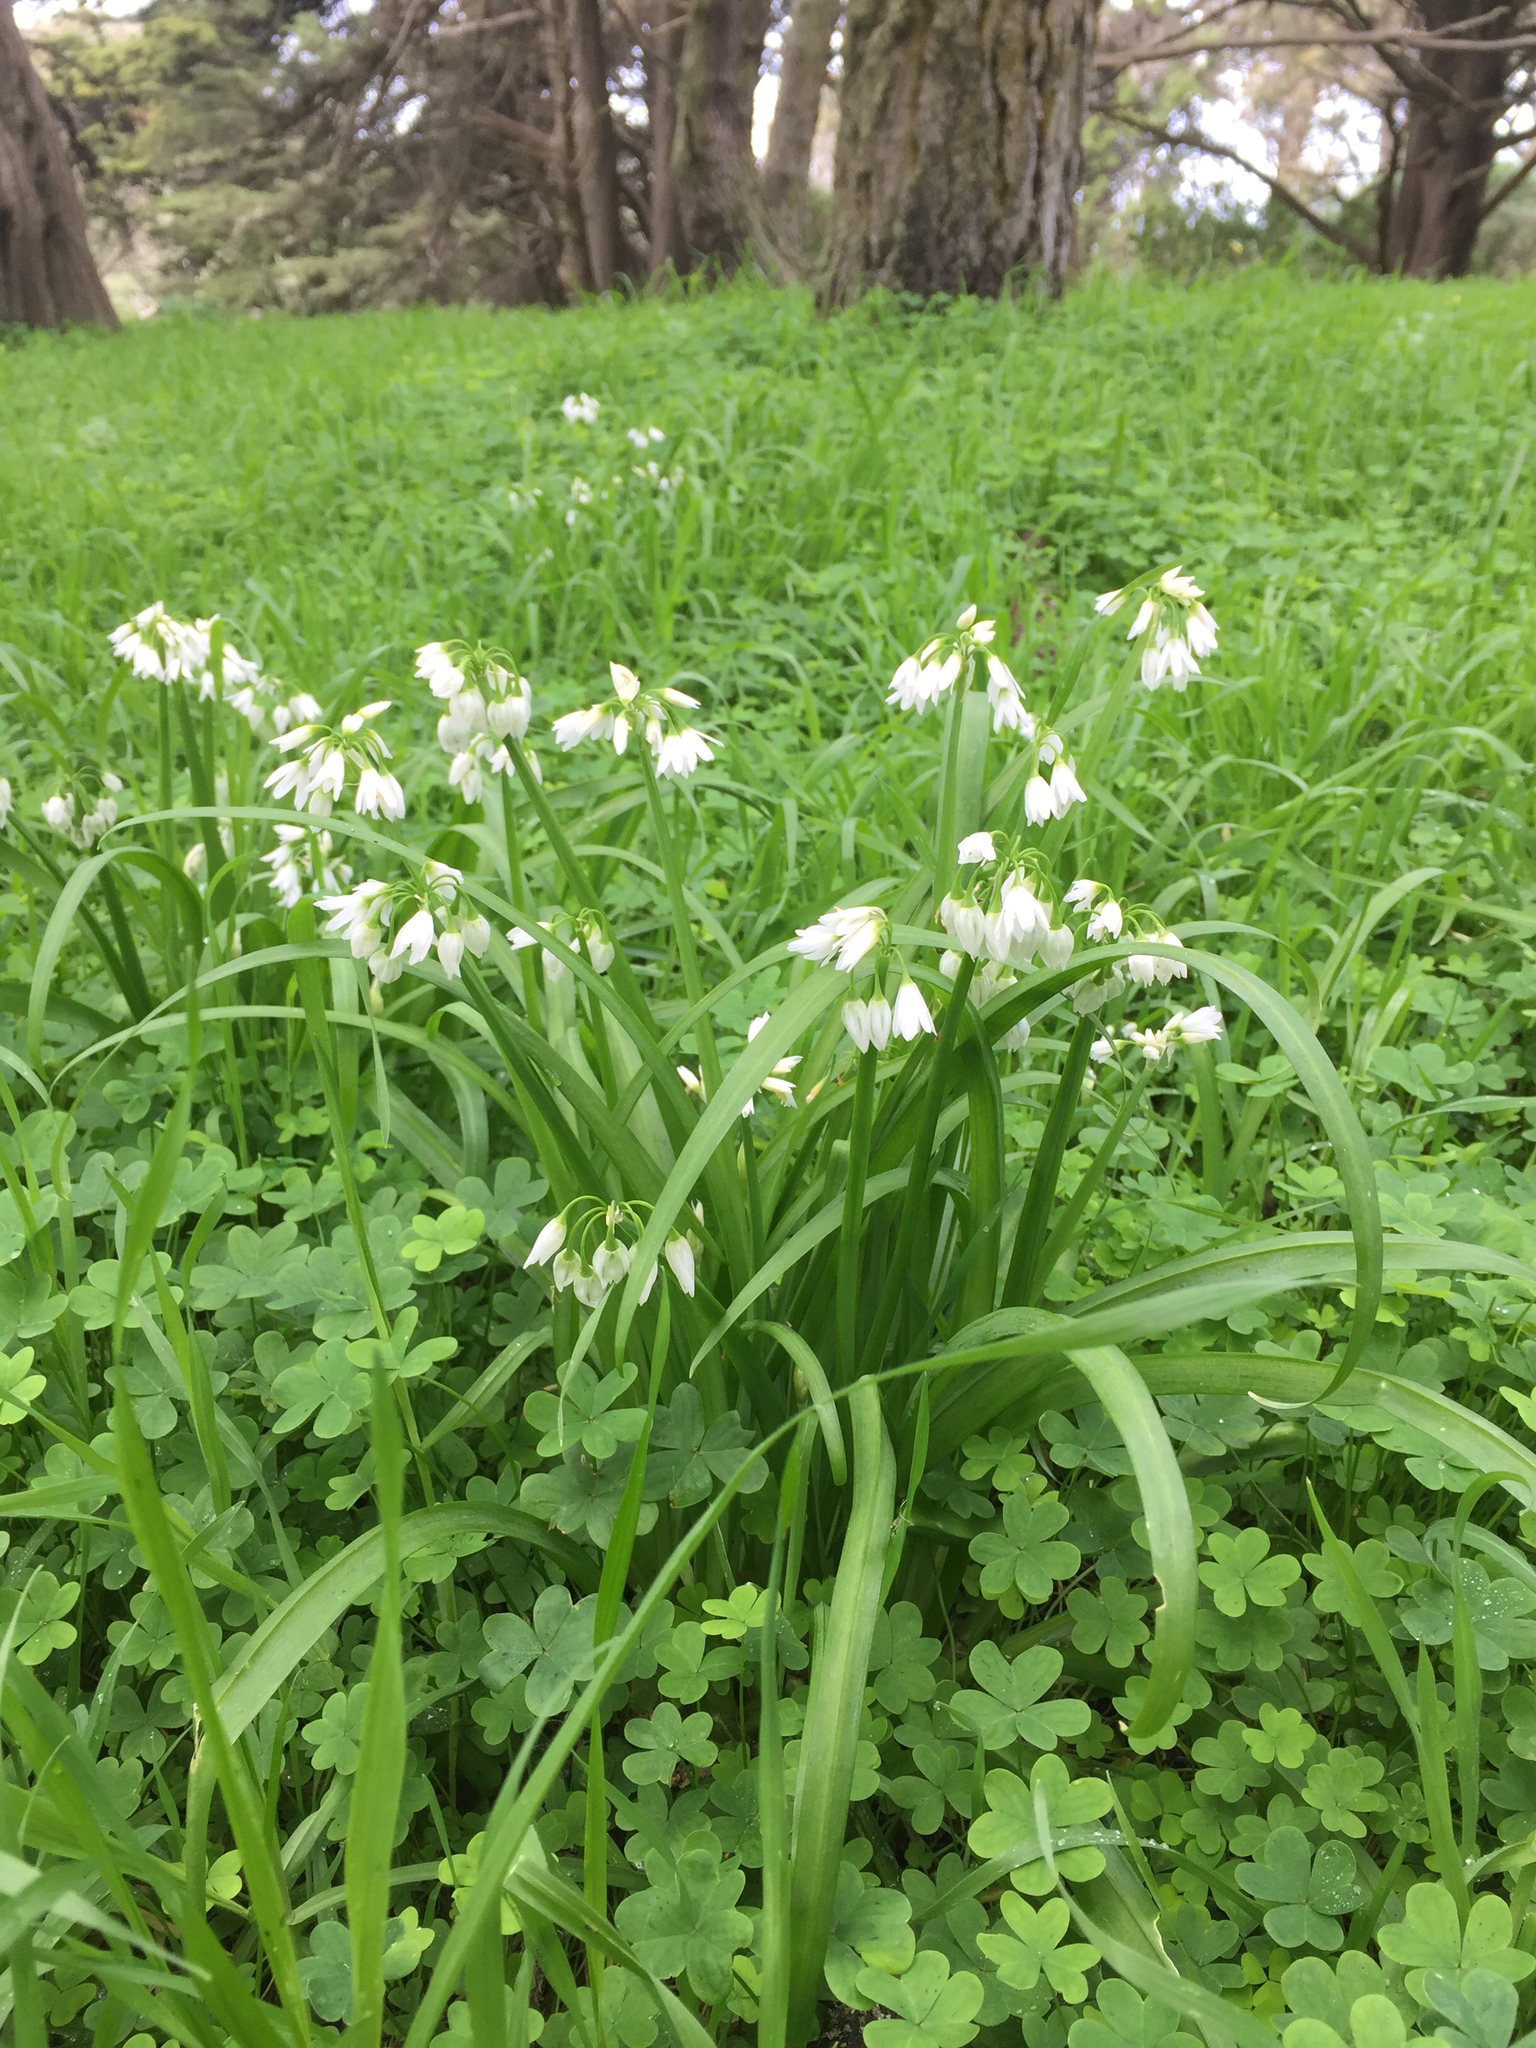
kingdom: Plantae
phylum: Tracheophyta
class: Liliopsida
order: Asparagales
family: Amaryllidaceae
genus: Allium
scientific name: Allium triquetrum
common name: Three-cornered garlic
